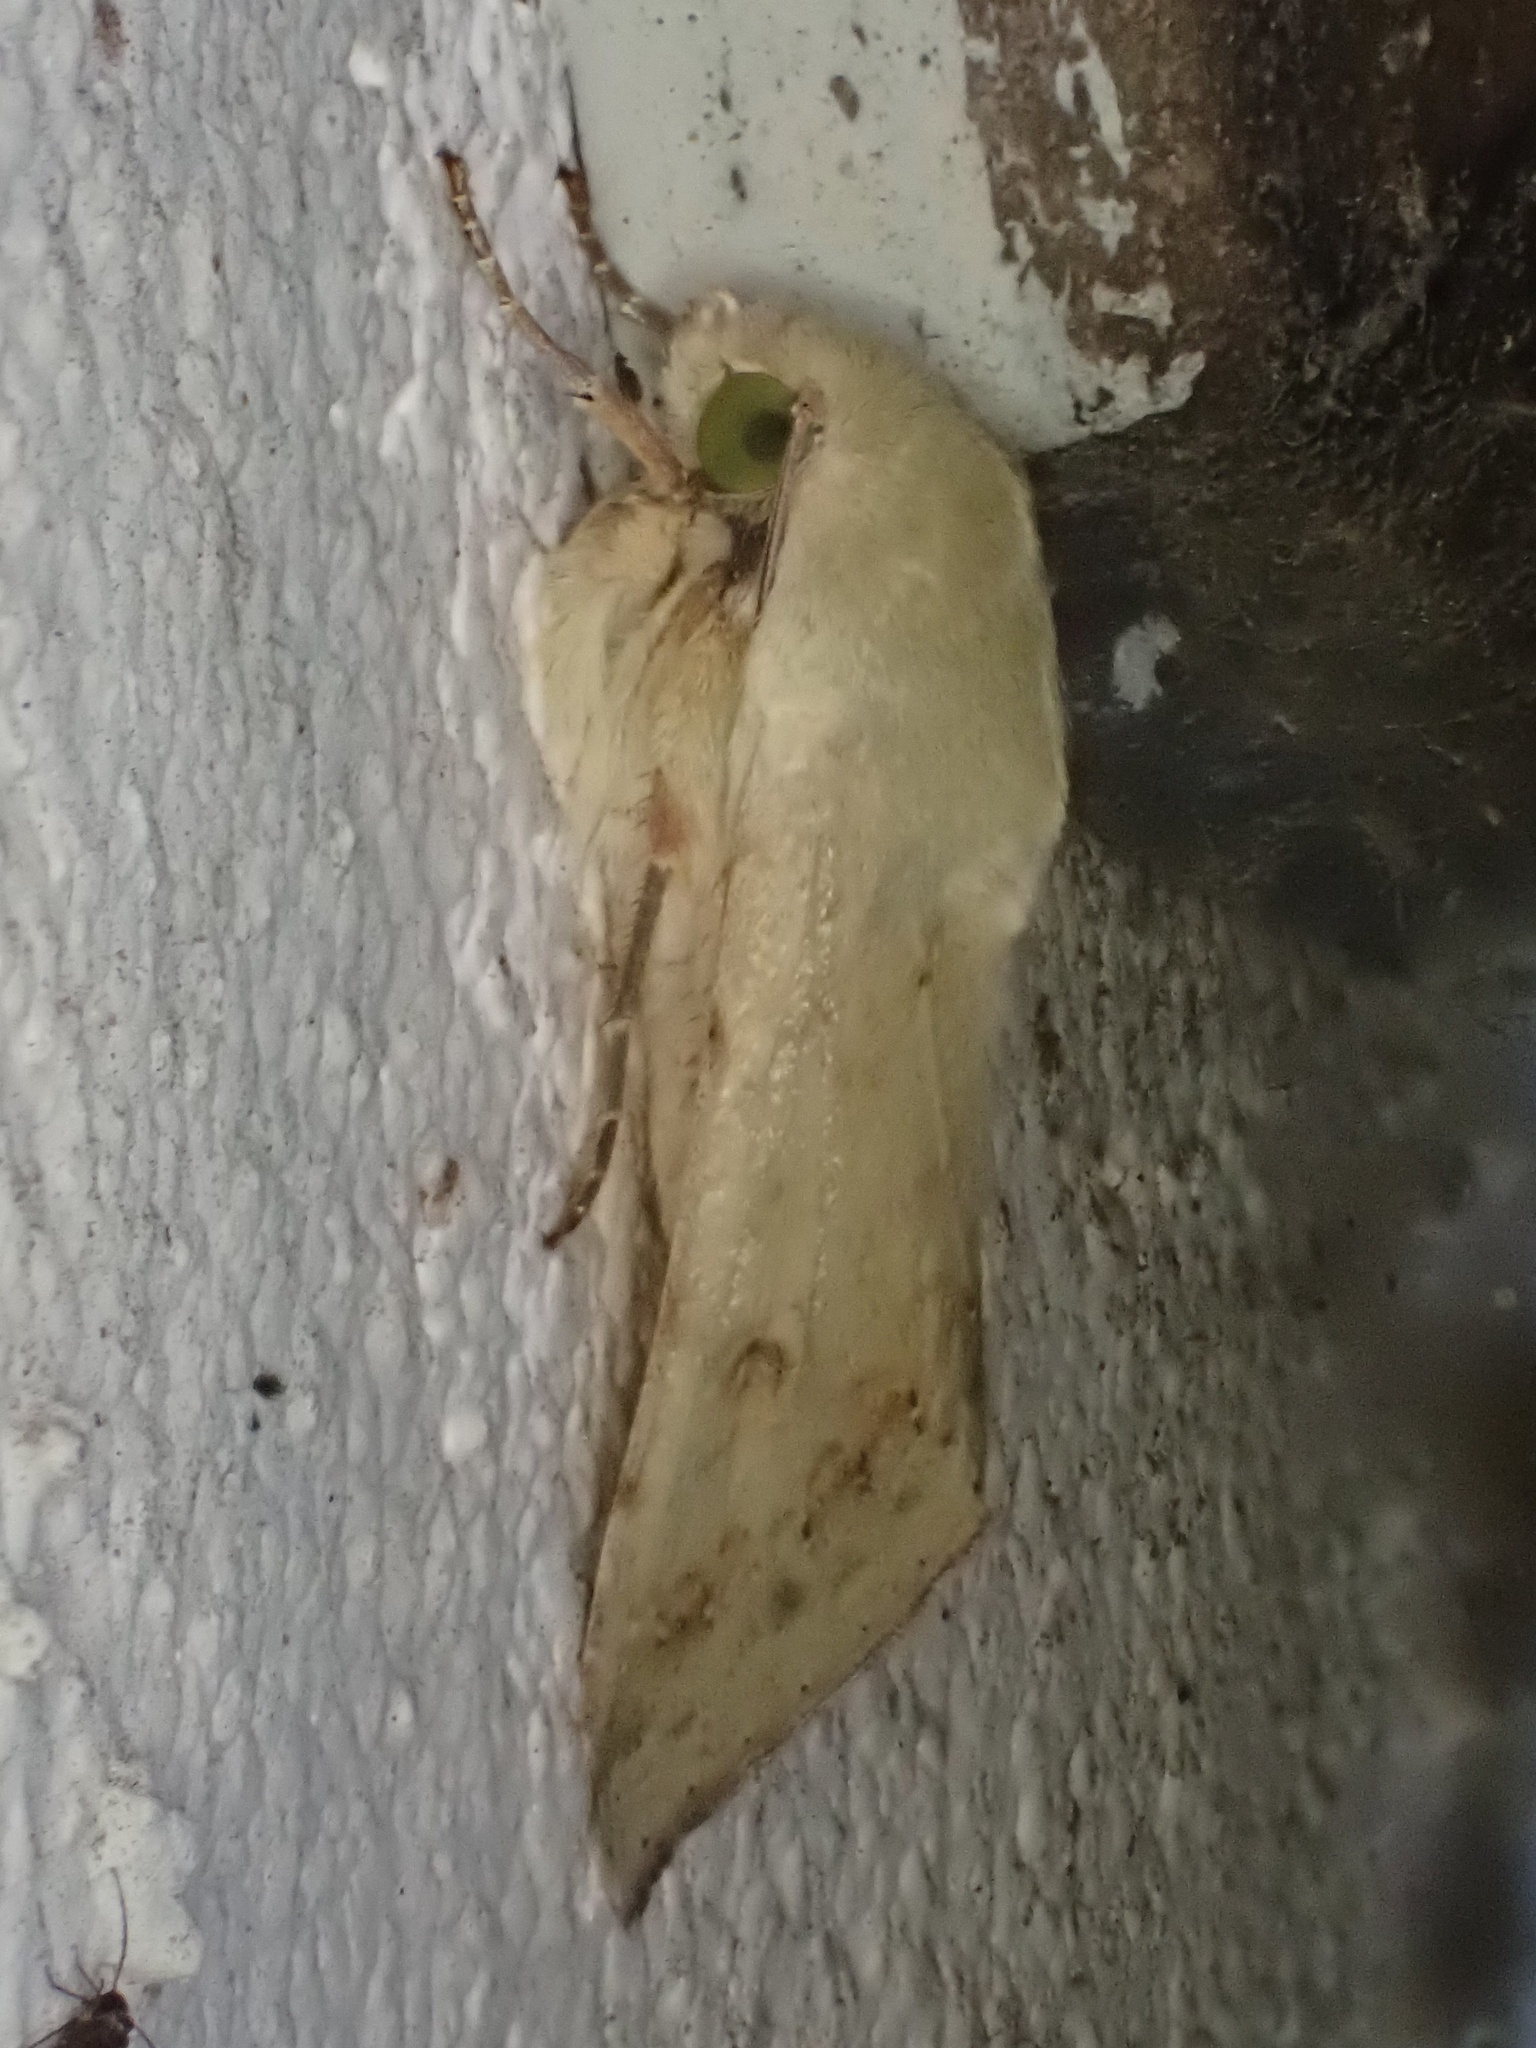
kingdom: Animalia
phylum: Arthropoda
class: Insecta
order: Lepidoptera
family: Noctuidae
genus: Helicoverpa
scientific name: Helicoverpa zea
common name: Bollworm
